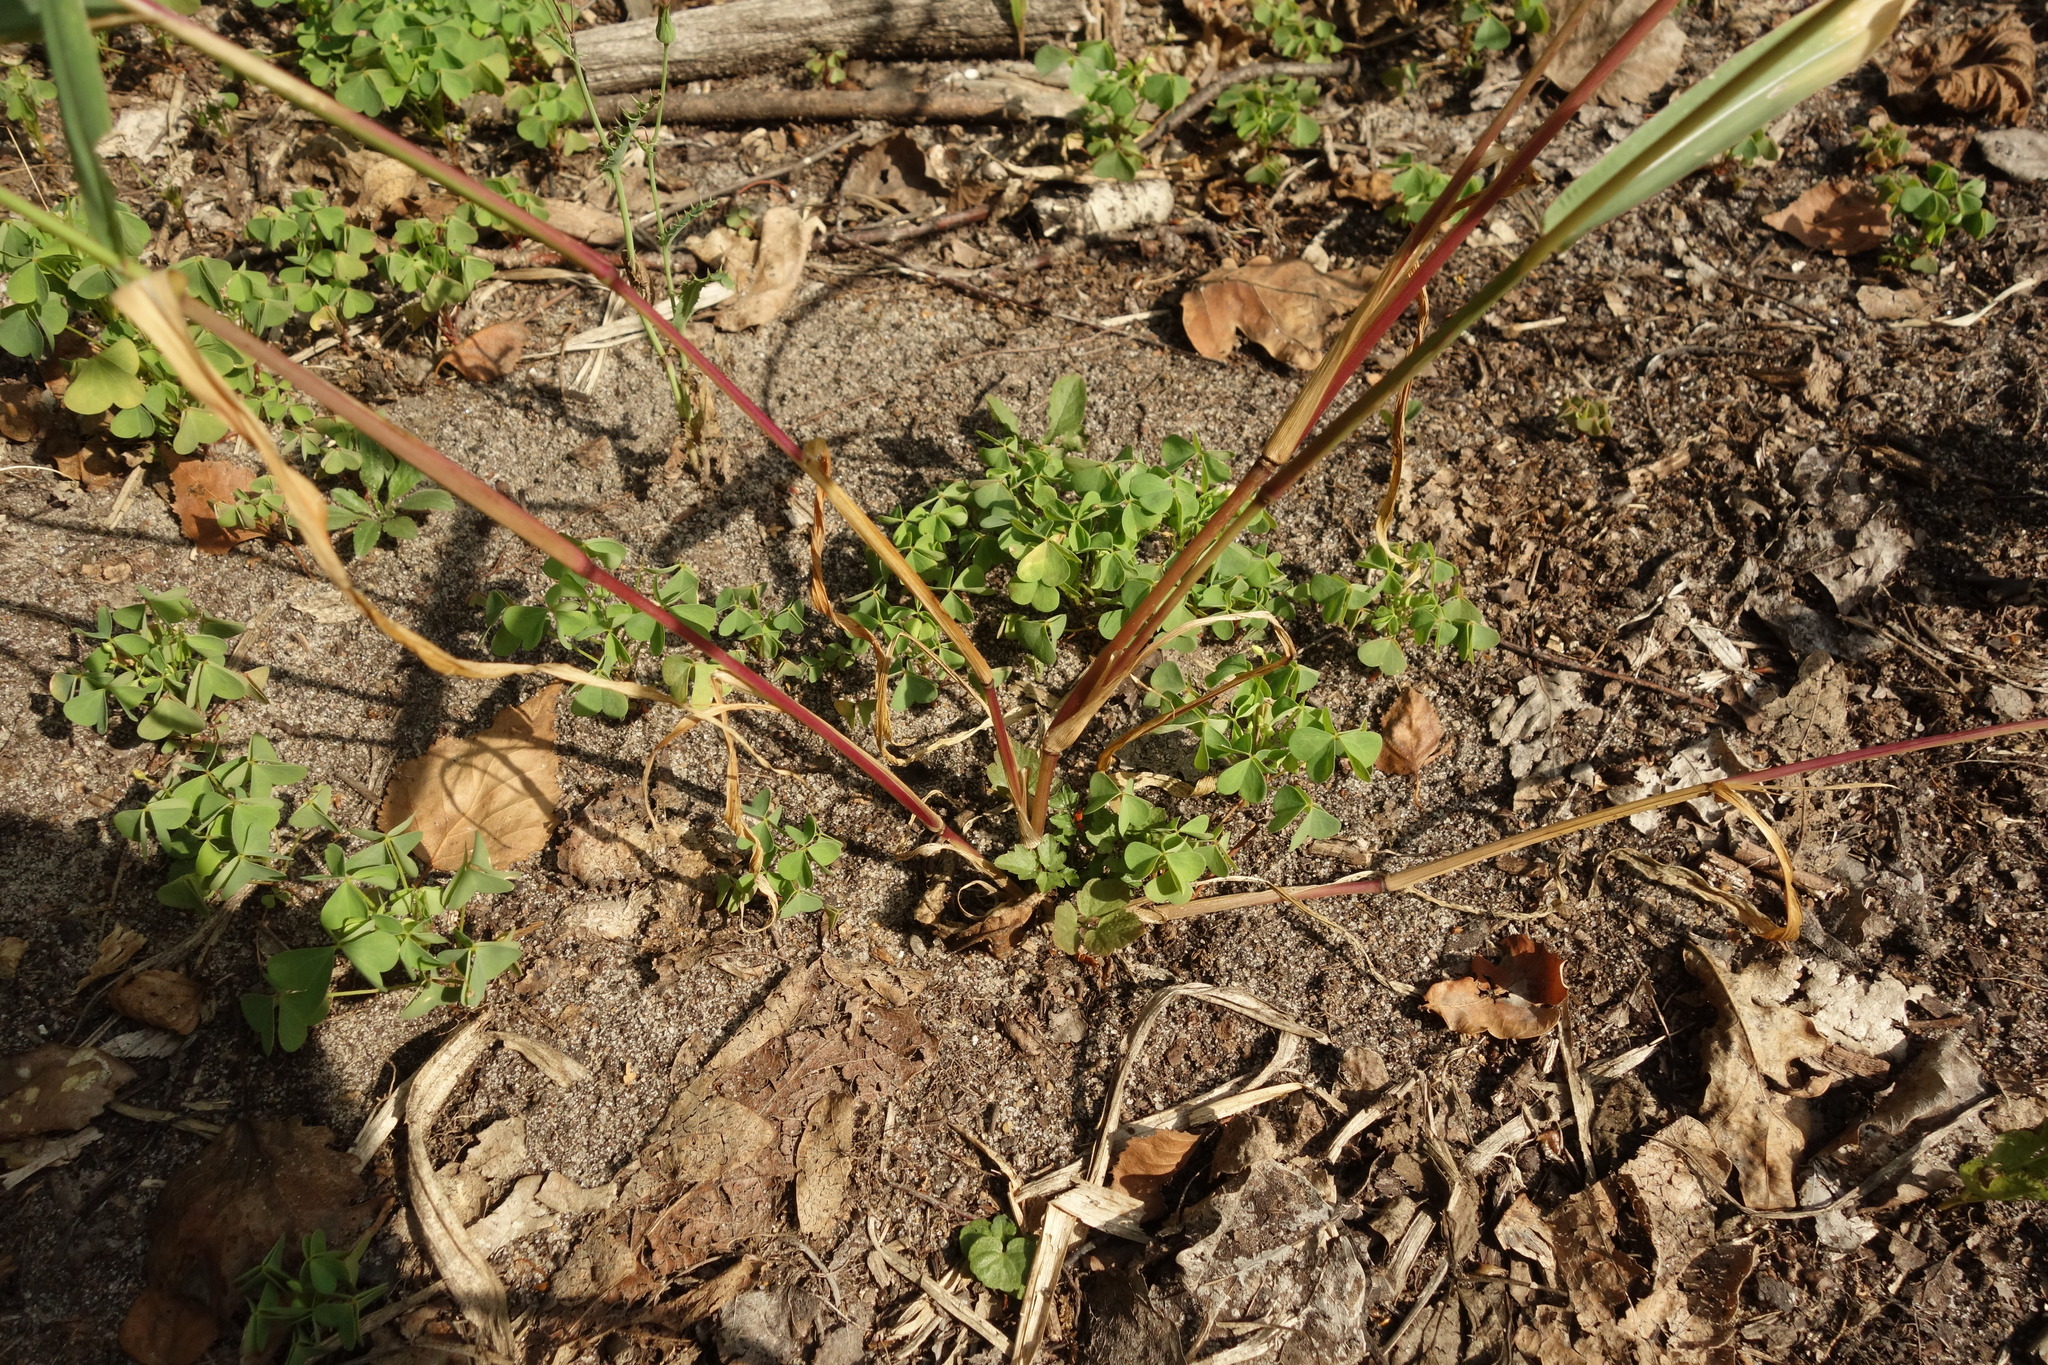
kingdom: Plantae
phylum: Tracheophyta
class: Liliopsida
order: Poales
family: Poaceae
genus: Setaria
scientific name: Setaria verticillata
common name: Hooked bristlegrass
